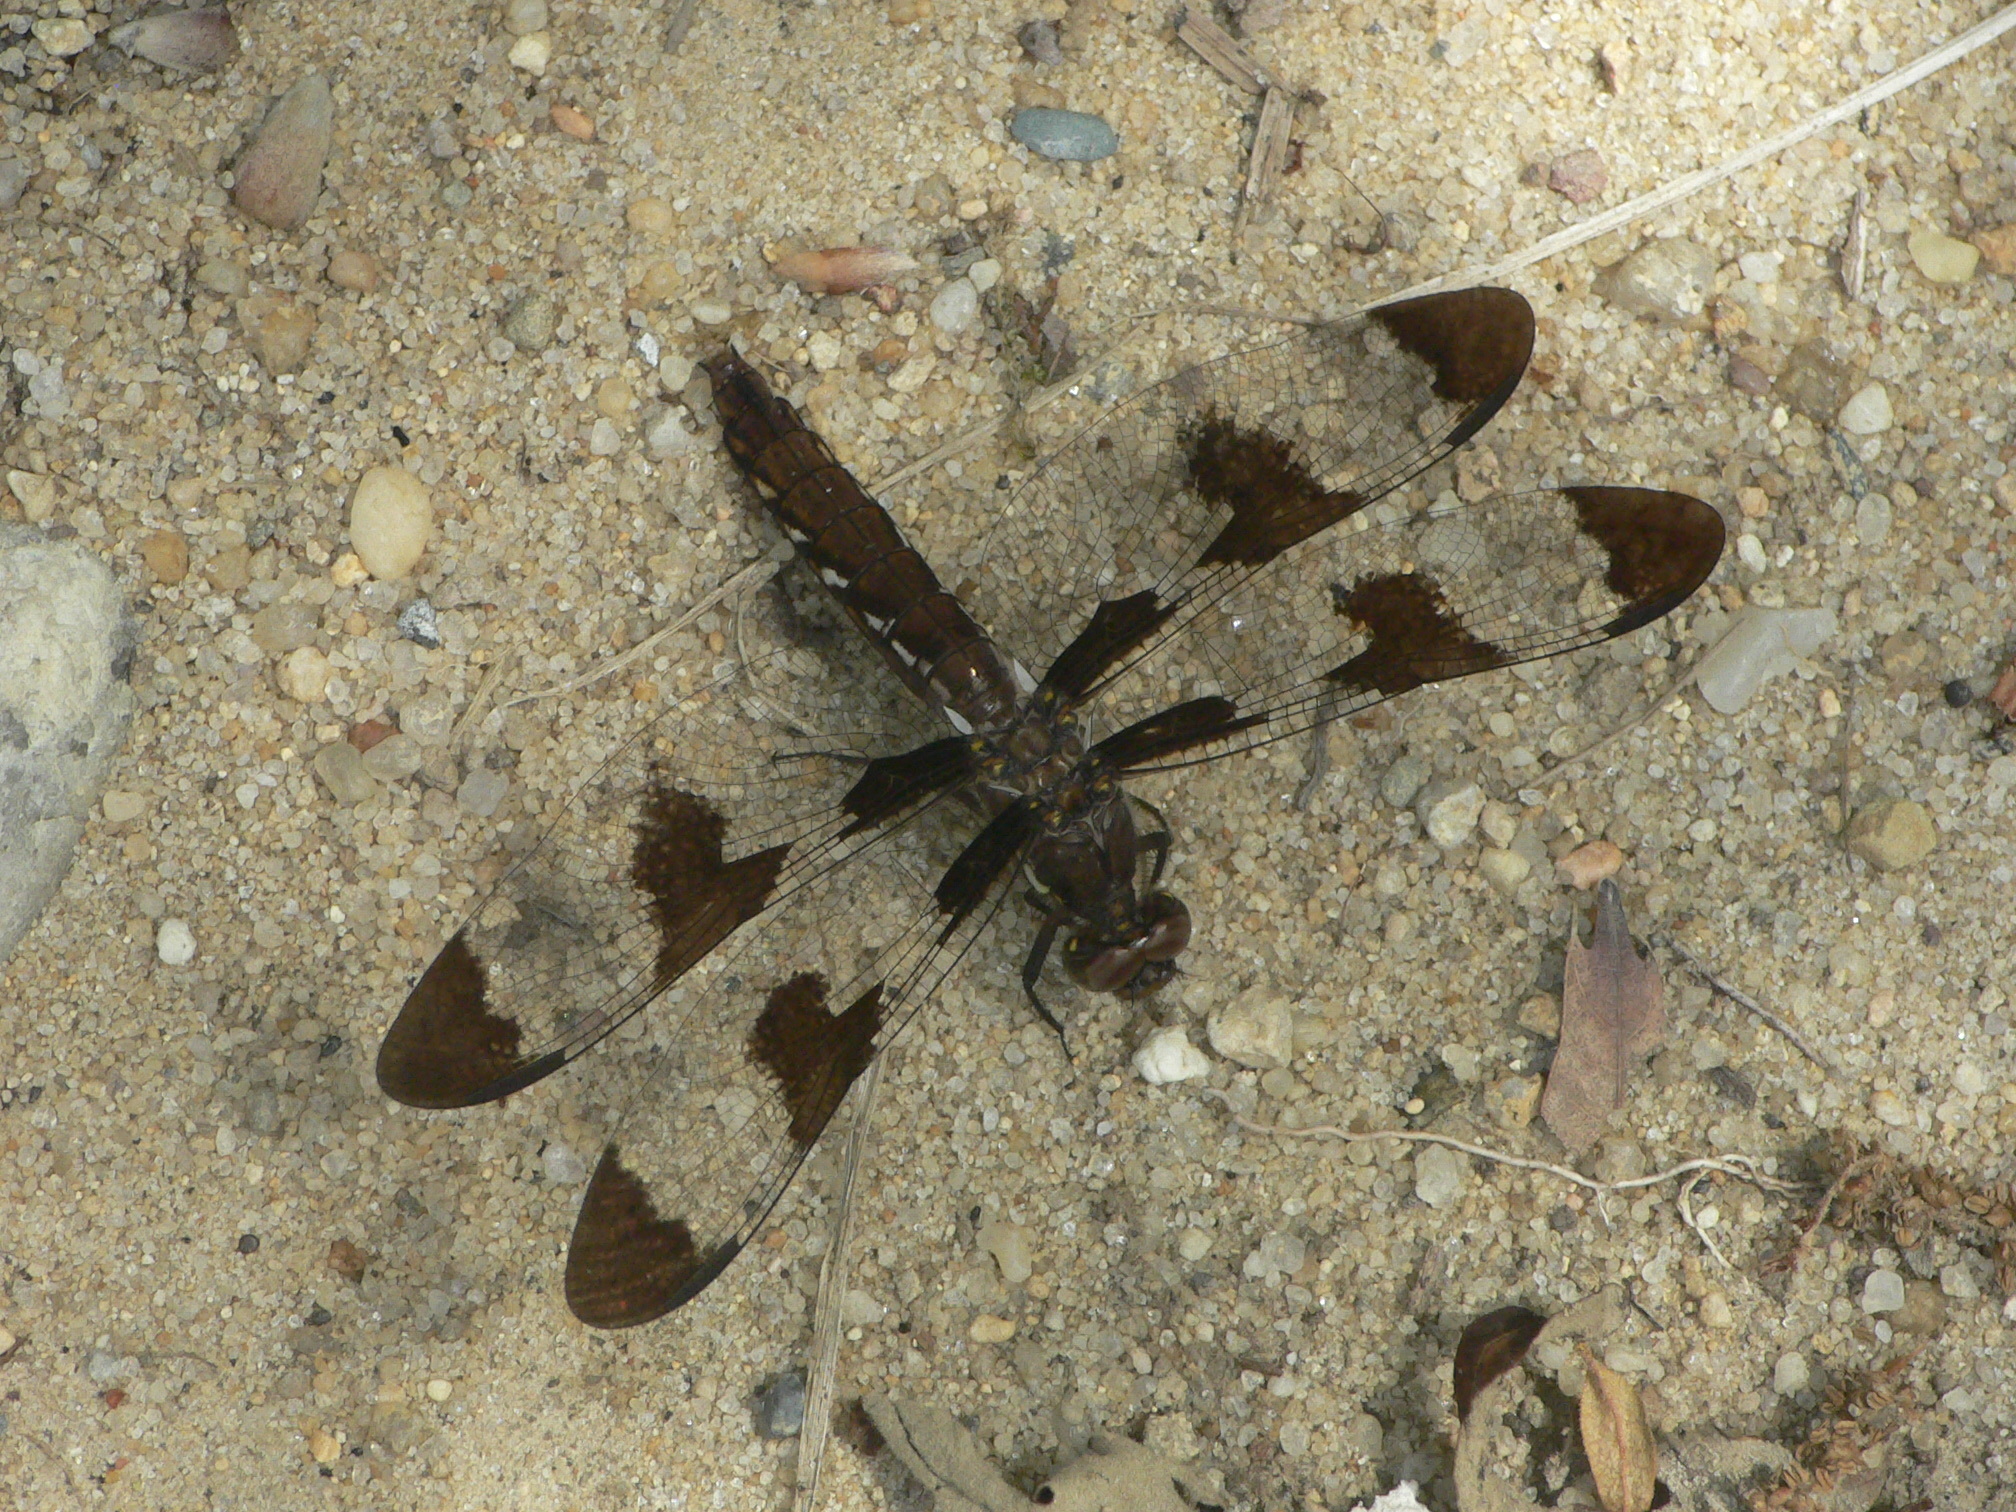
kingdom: Animalia
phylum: Arthropoda
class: Insecta
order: Odonata
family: Libellulidae
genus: Plathemis
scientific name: Plathemis lydia
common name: Common whitetail
